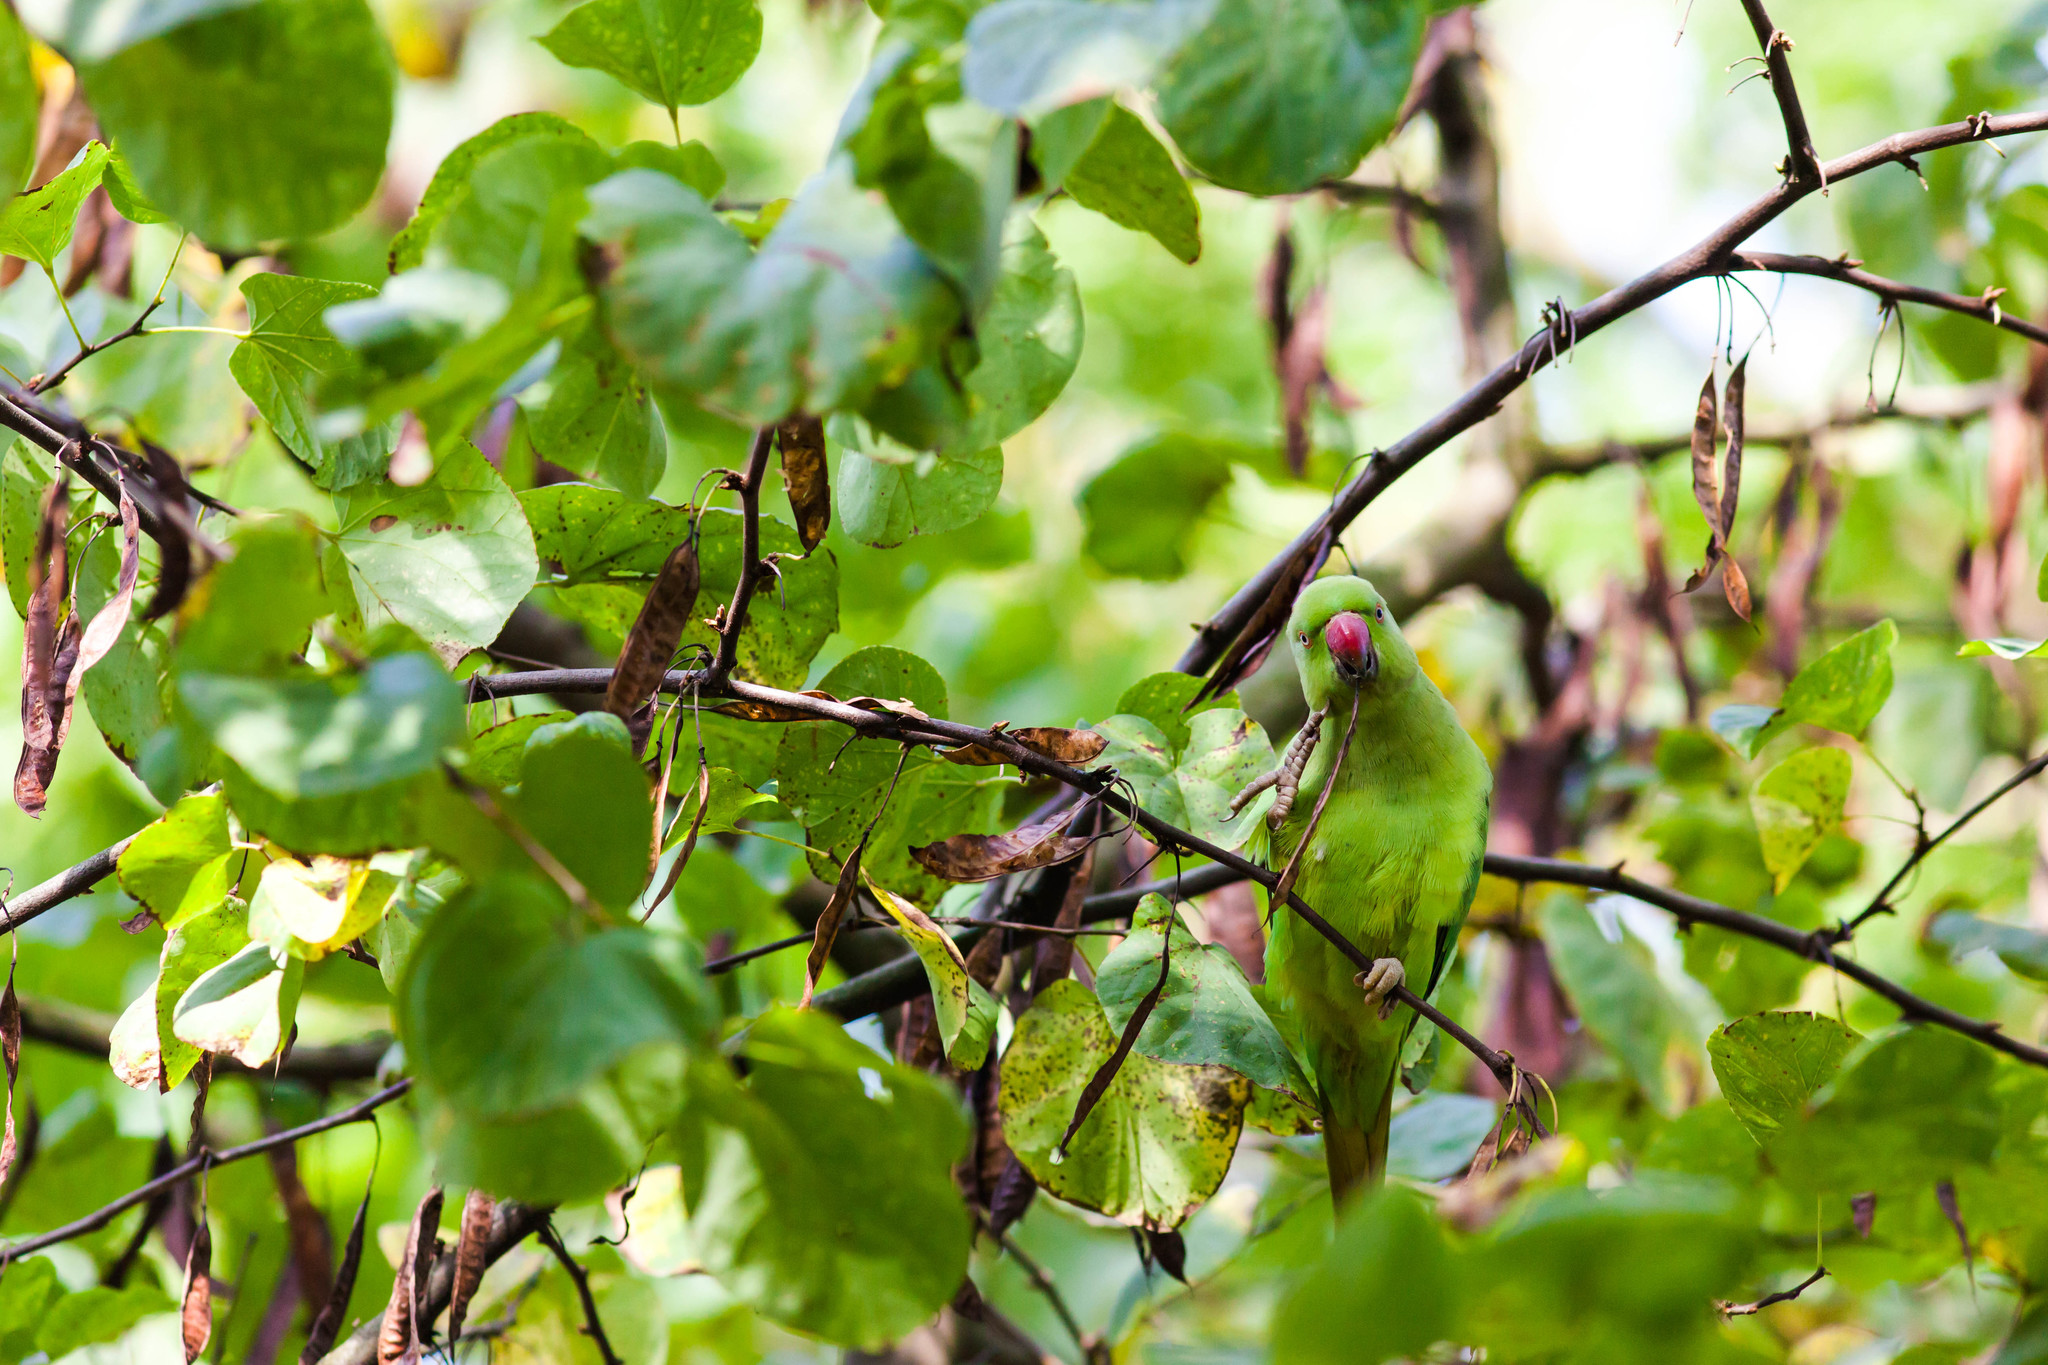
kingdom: Animalia
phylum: Chordata
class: Aves
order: Psittaciformes
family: Psittacidae
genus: Psittacula
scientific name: Psittacula krameri
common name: Rose-ringed parakeet
